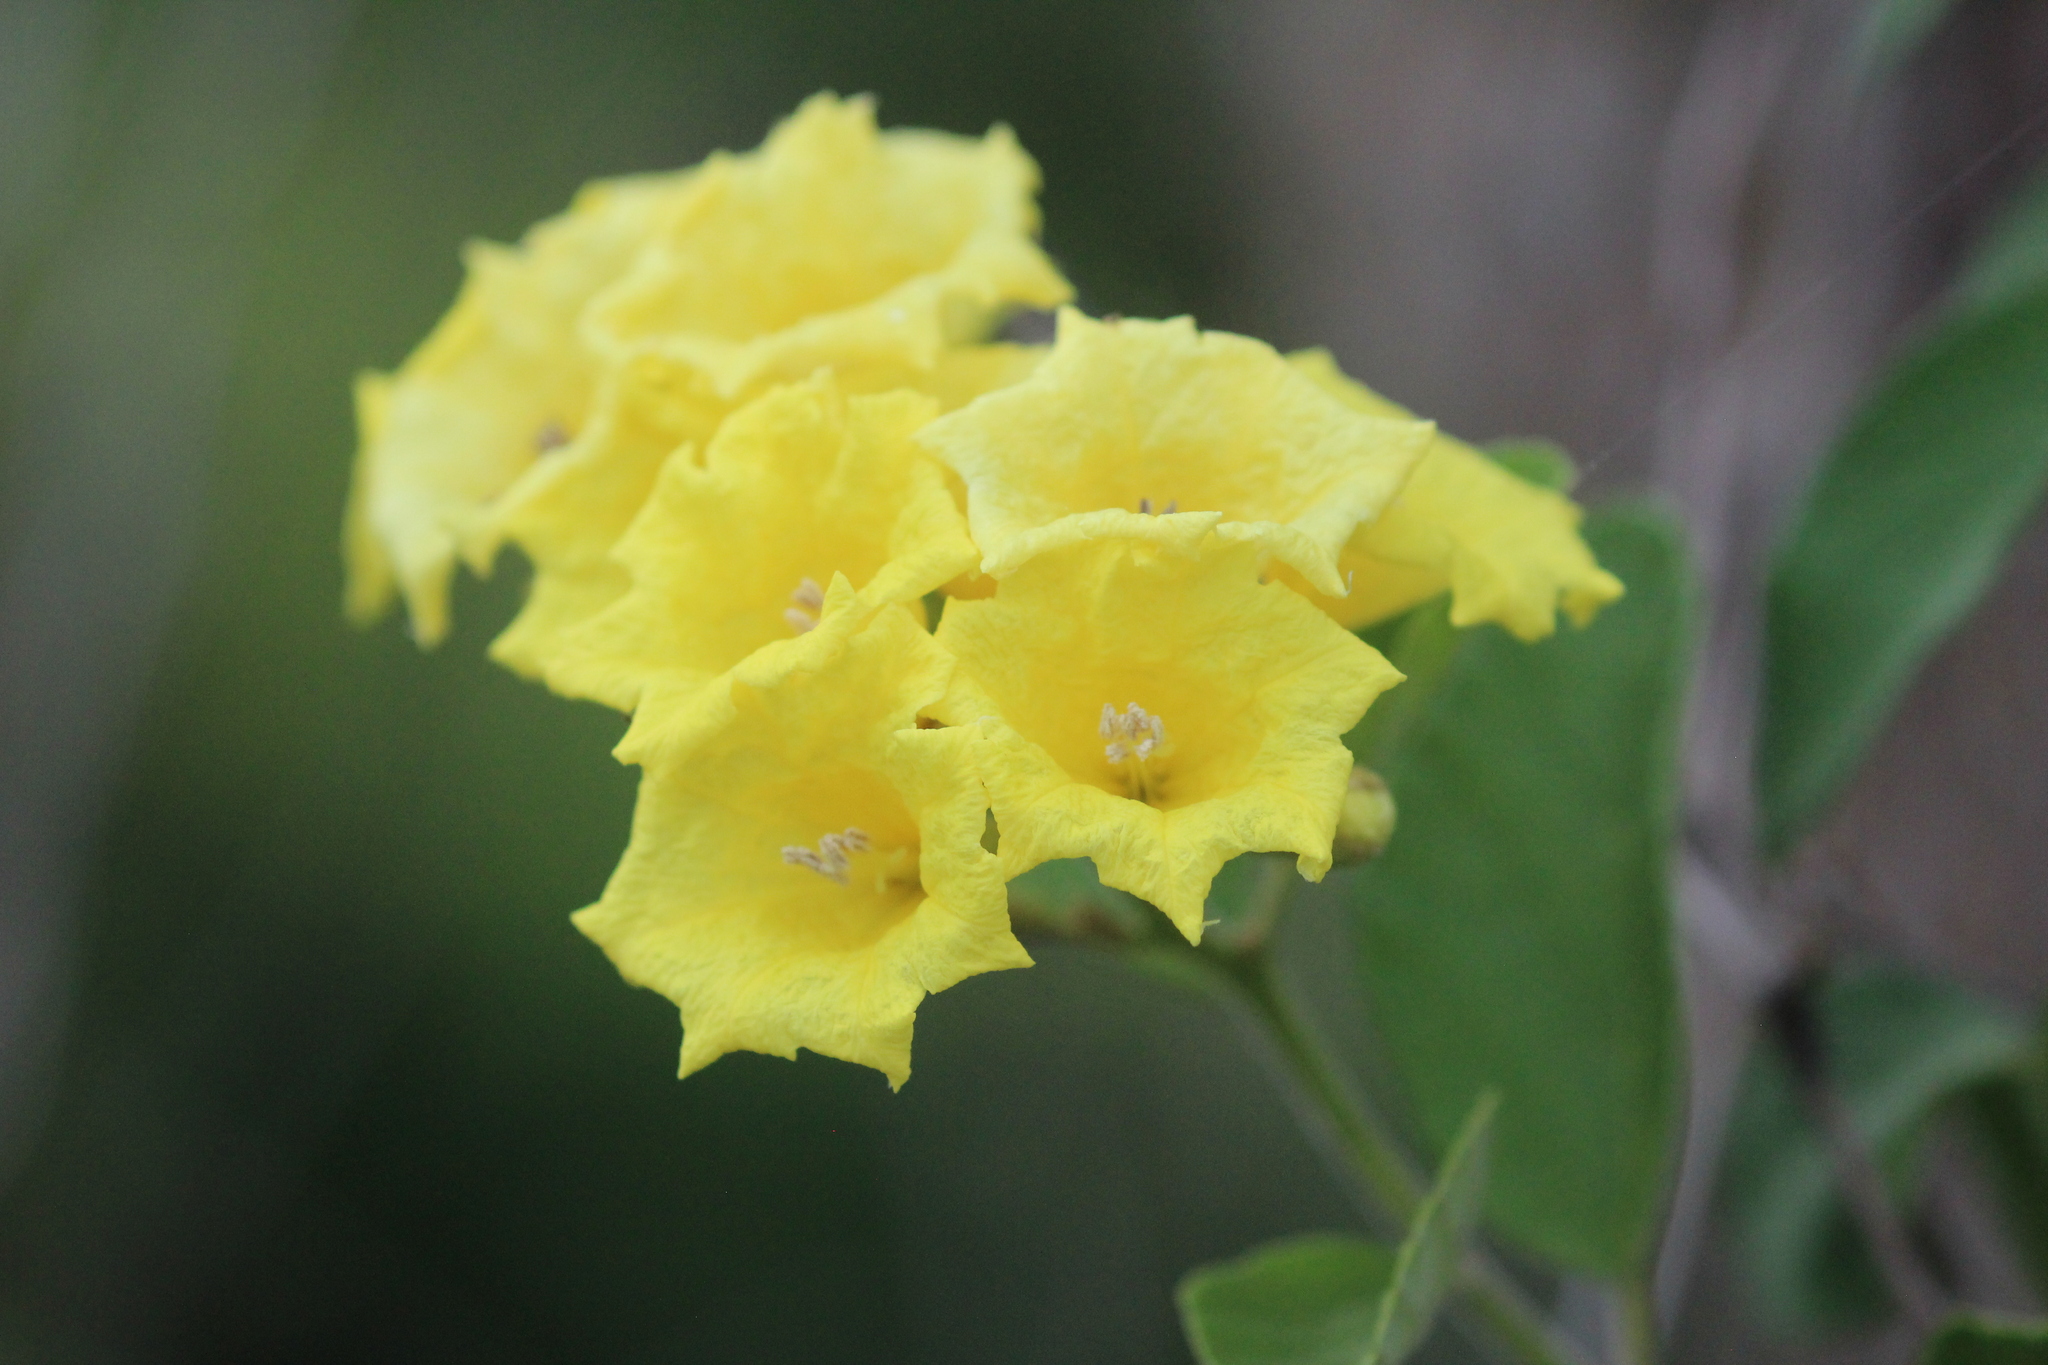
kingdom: Plantae
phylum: Tracheophyta
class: Magnoliopsida
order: Boraginales
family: Cordiaceae
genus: Cordia
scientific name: Cordia lutea
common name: Yellow geiger
